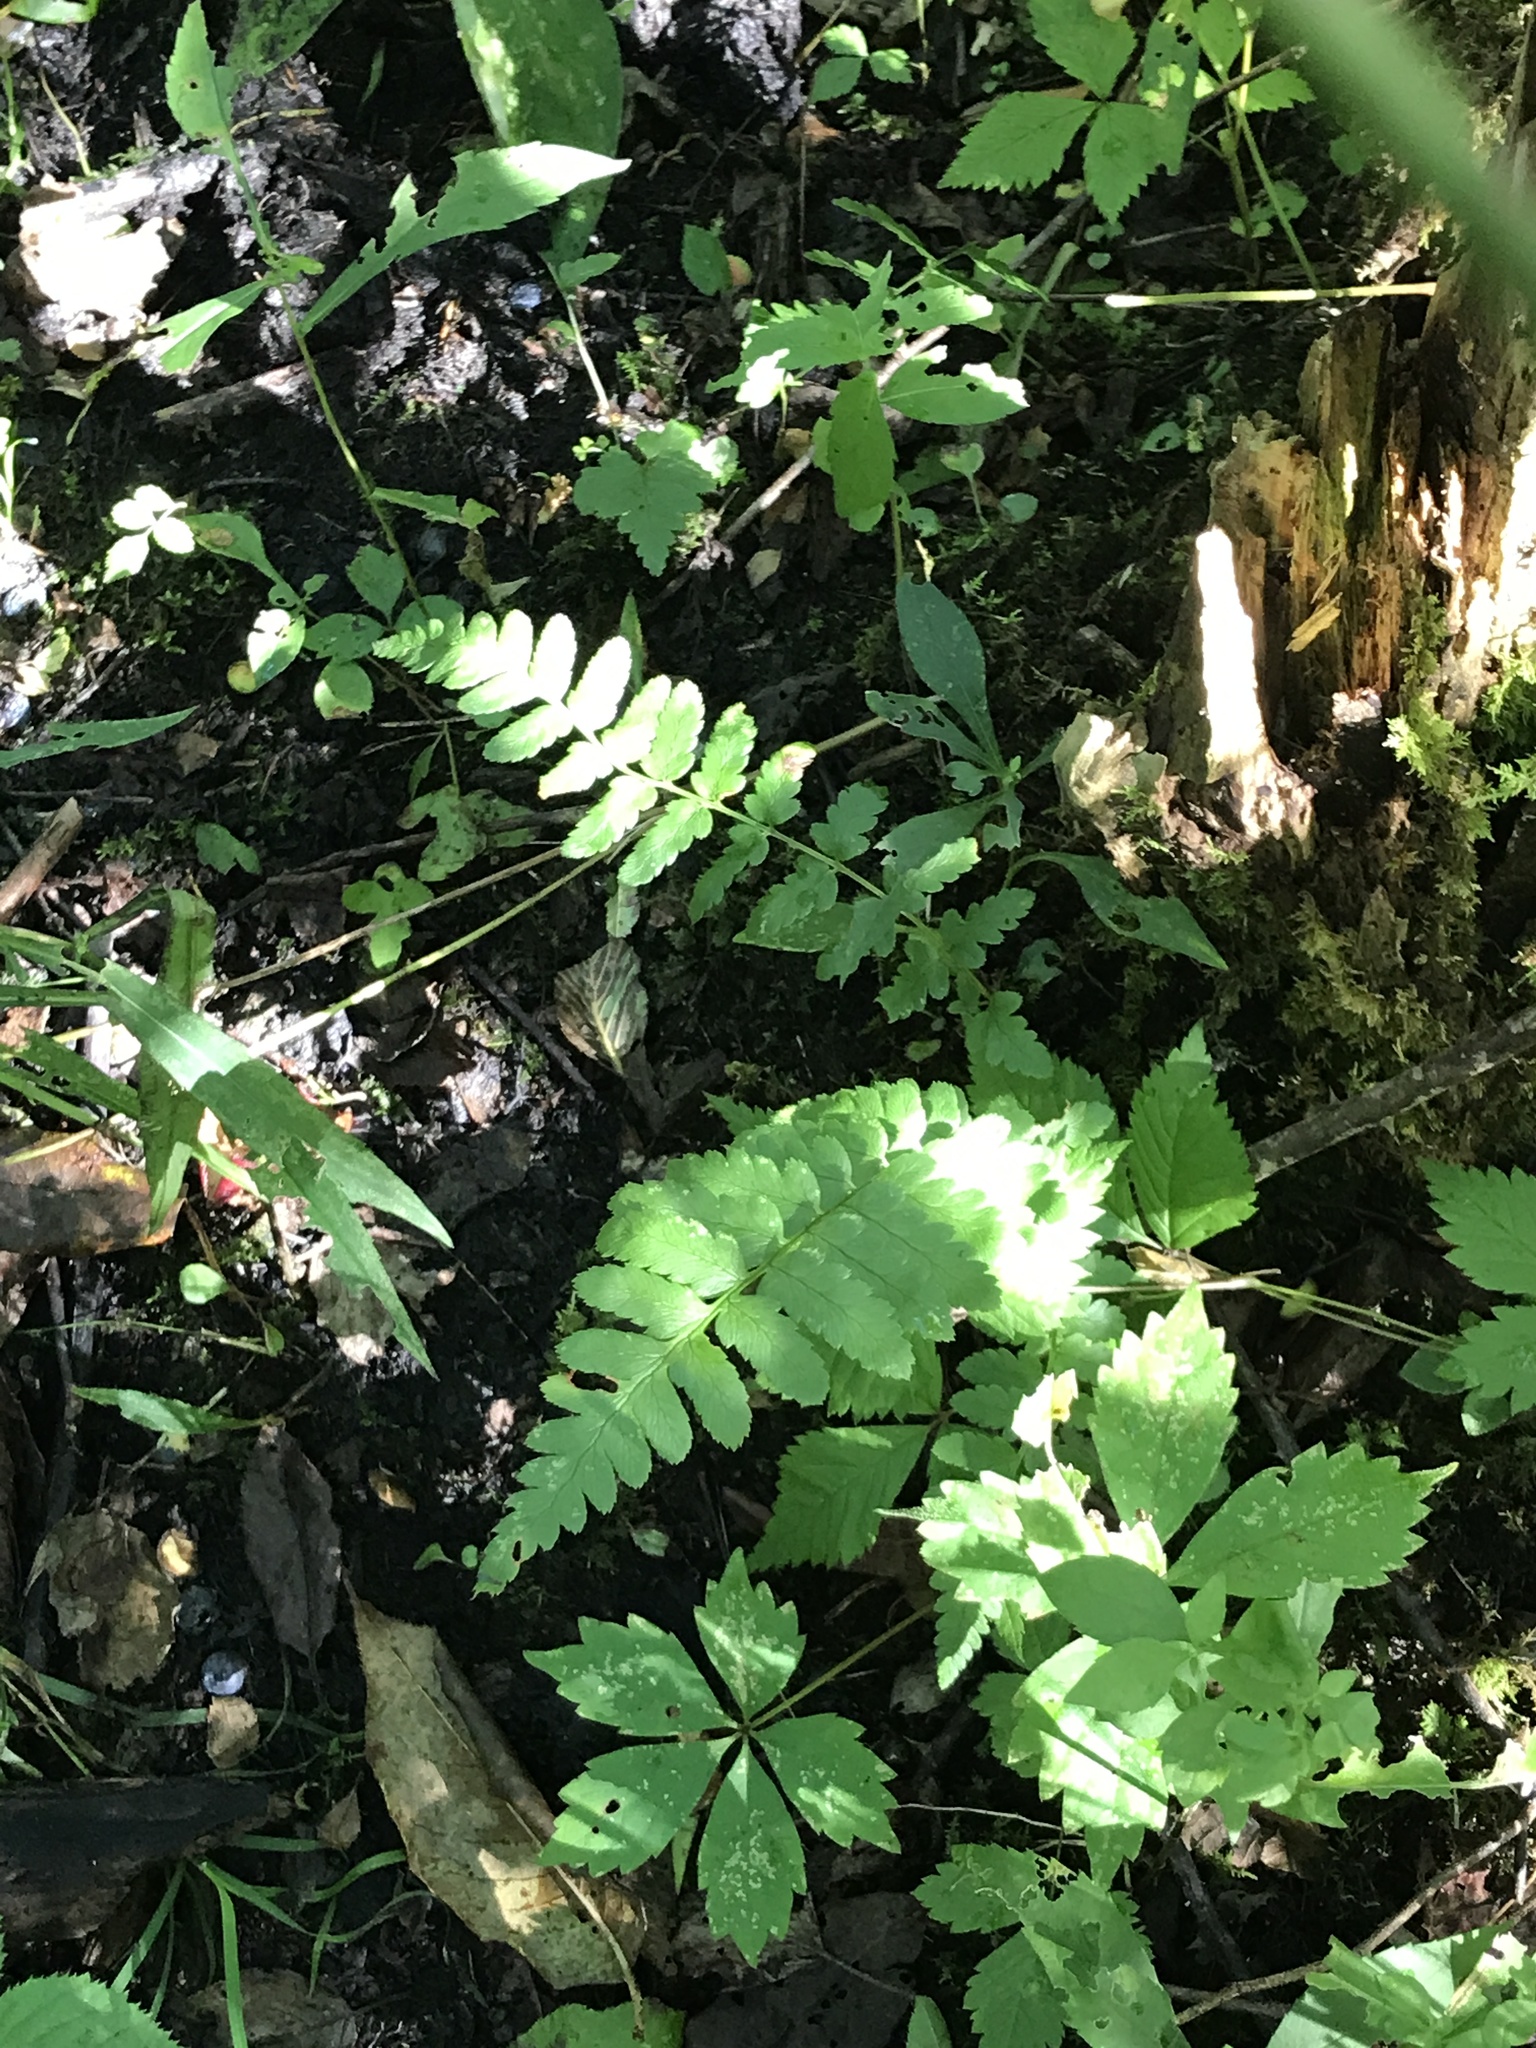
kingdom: Plantae
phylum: Tracheophyta
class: Polypodiopsida
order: Polypodiales
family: Dryopteridaceae
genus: Dryopteris
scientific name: Dryopteris cristata
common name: Crested wood fern
